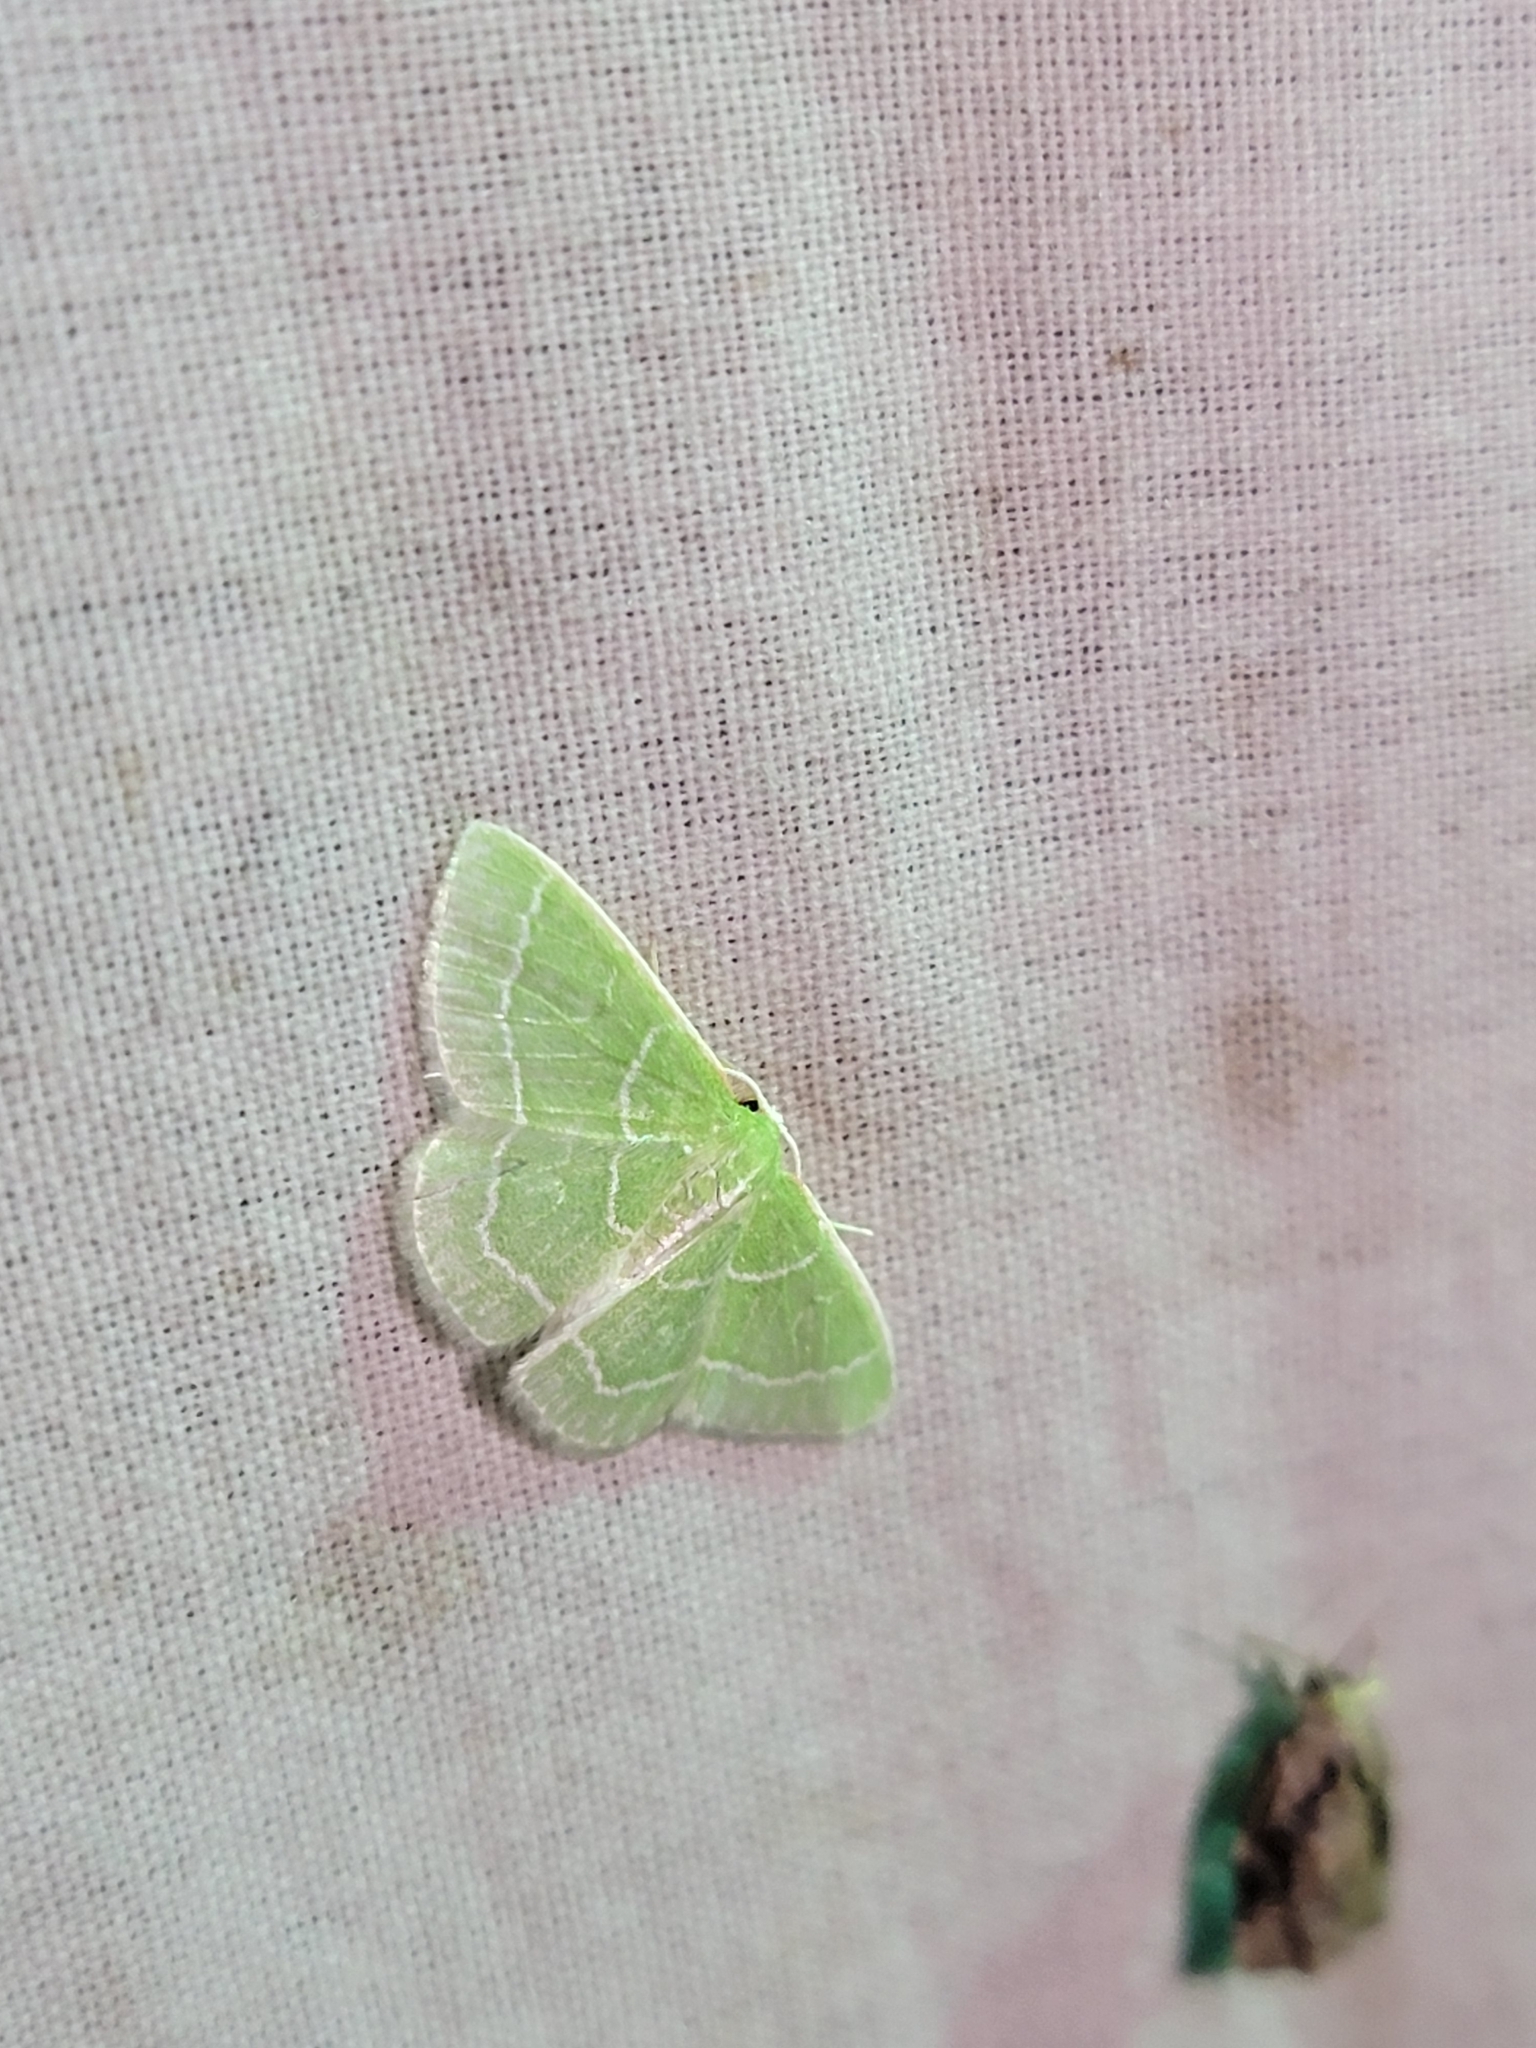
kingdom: Animalia
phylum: Arthropoda
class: Insecta
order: Lepidoptera
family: Geometridae
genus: Synchlora
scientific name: Synchlora aerata
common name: Wavy-lined emerald
